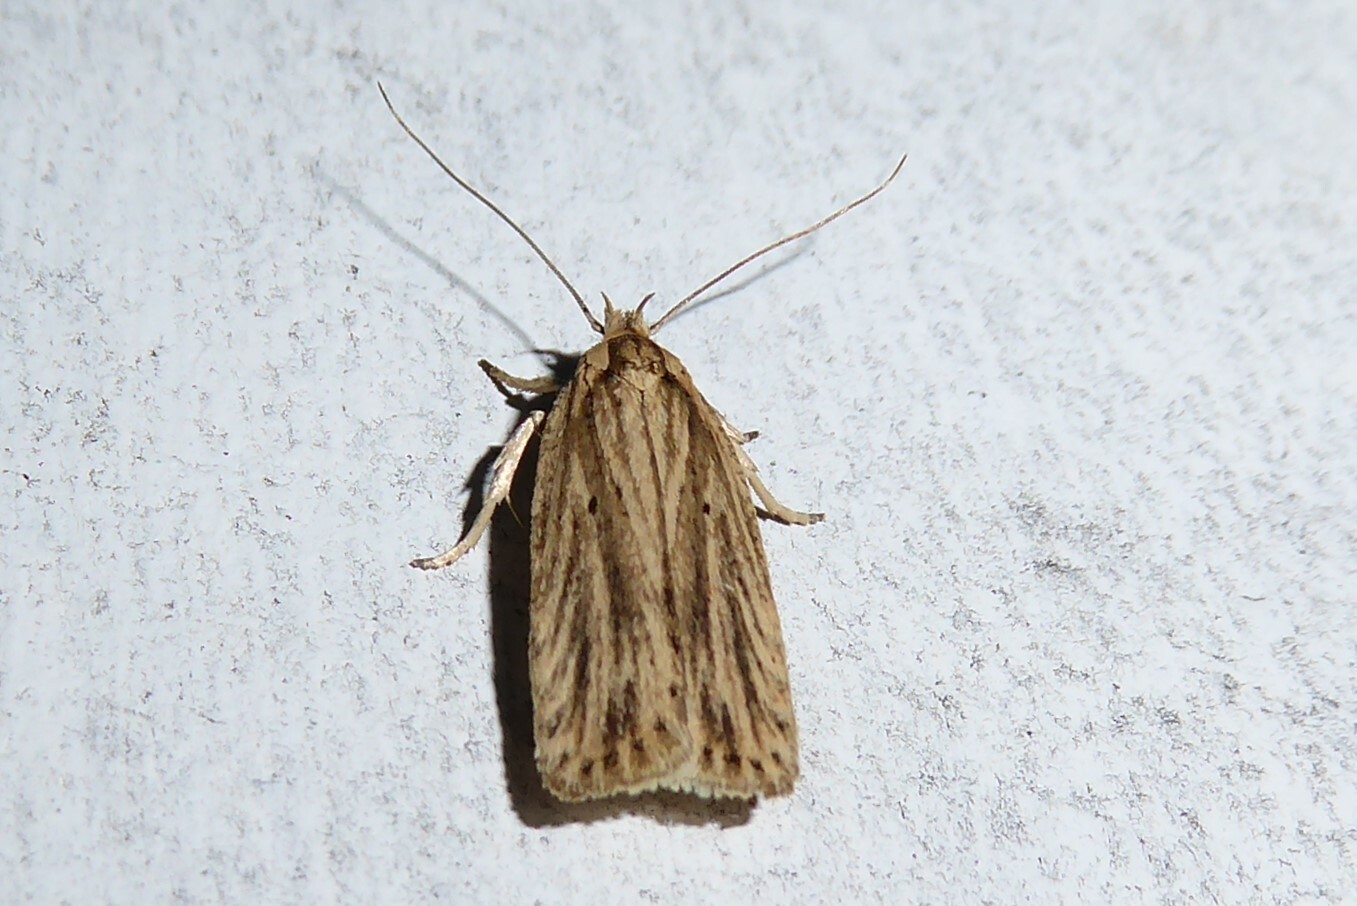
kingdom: Animalia
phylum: Arthropoda
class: Insecta
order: Lepidoptera
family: Depressariidae
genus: Agonopterix
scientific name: Agonopterix
